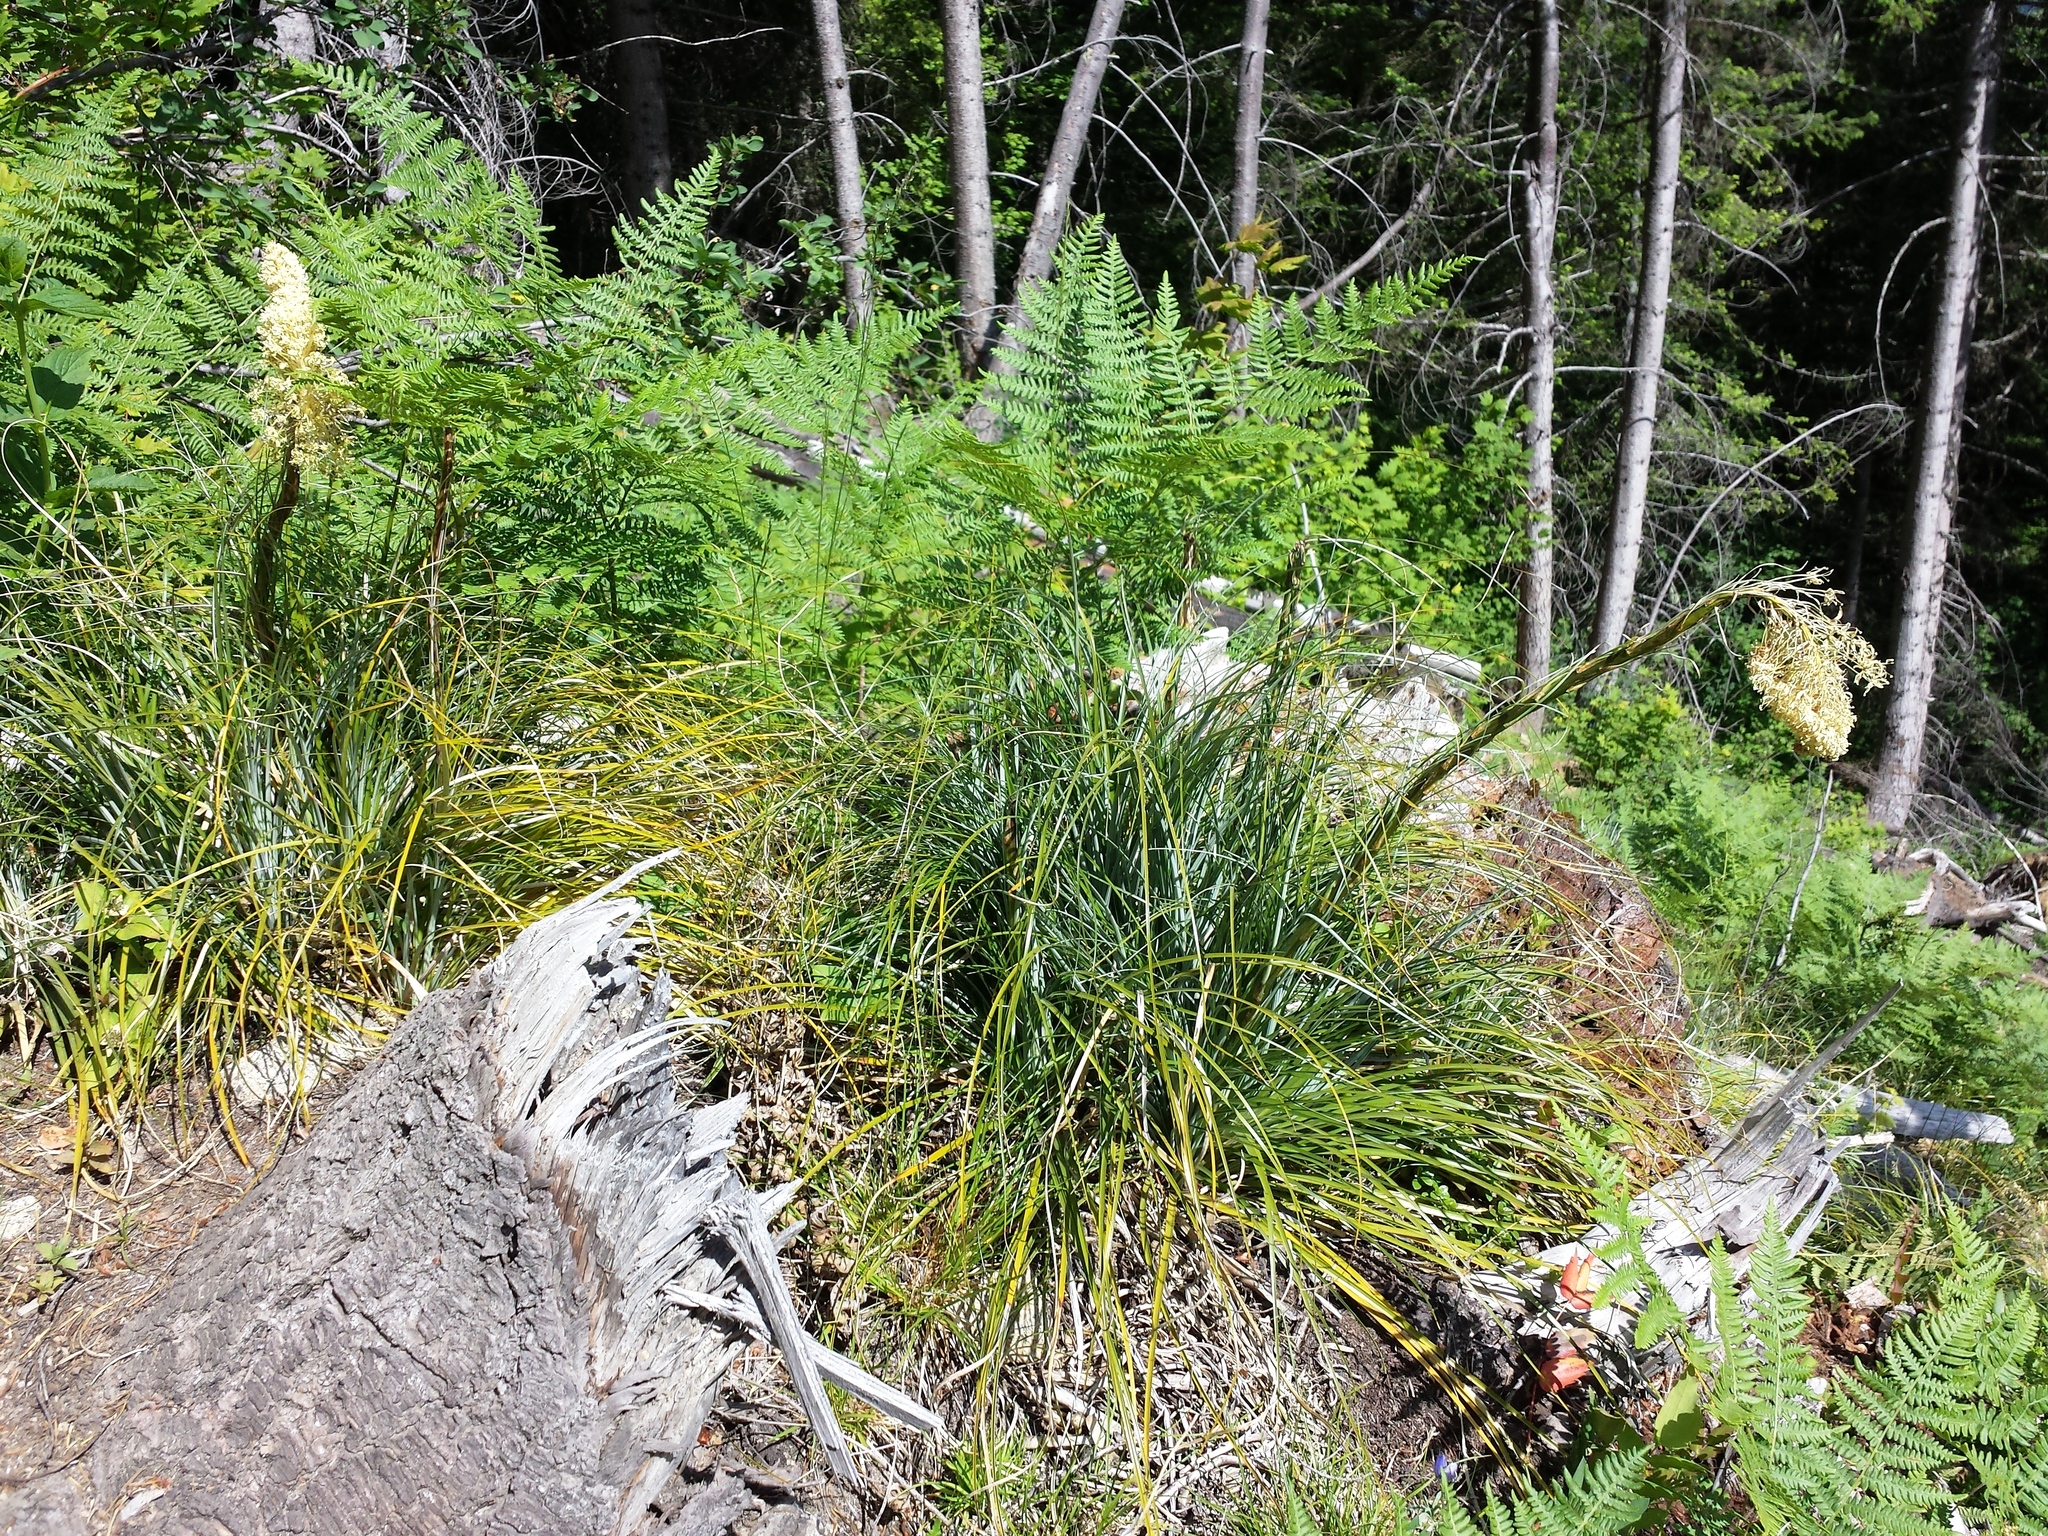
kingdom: Plantae
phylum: Tracheophyta
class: Liliopsida
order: Liliales
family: Melanthiaceae
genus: Xerophyllum
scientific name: Xerophyllum tenax
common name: Bear-grass
